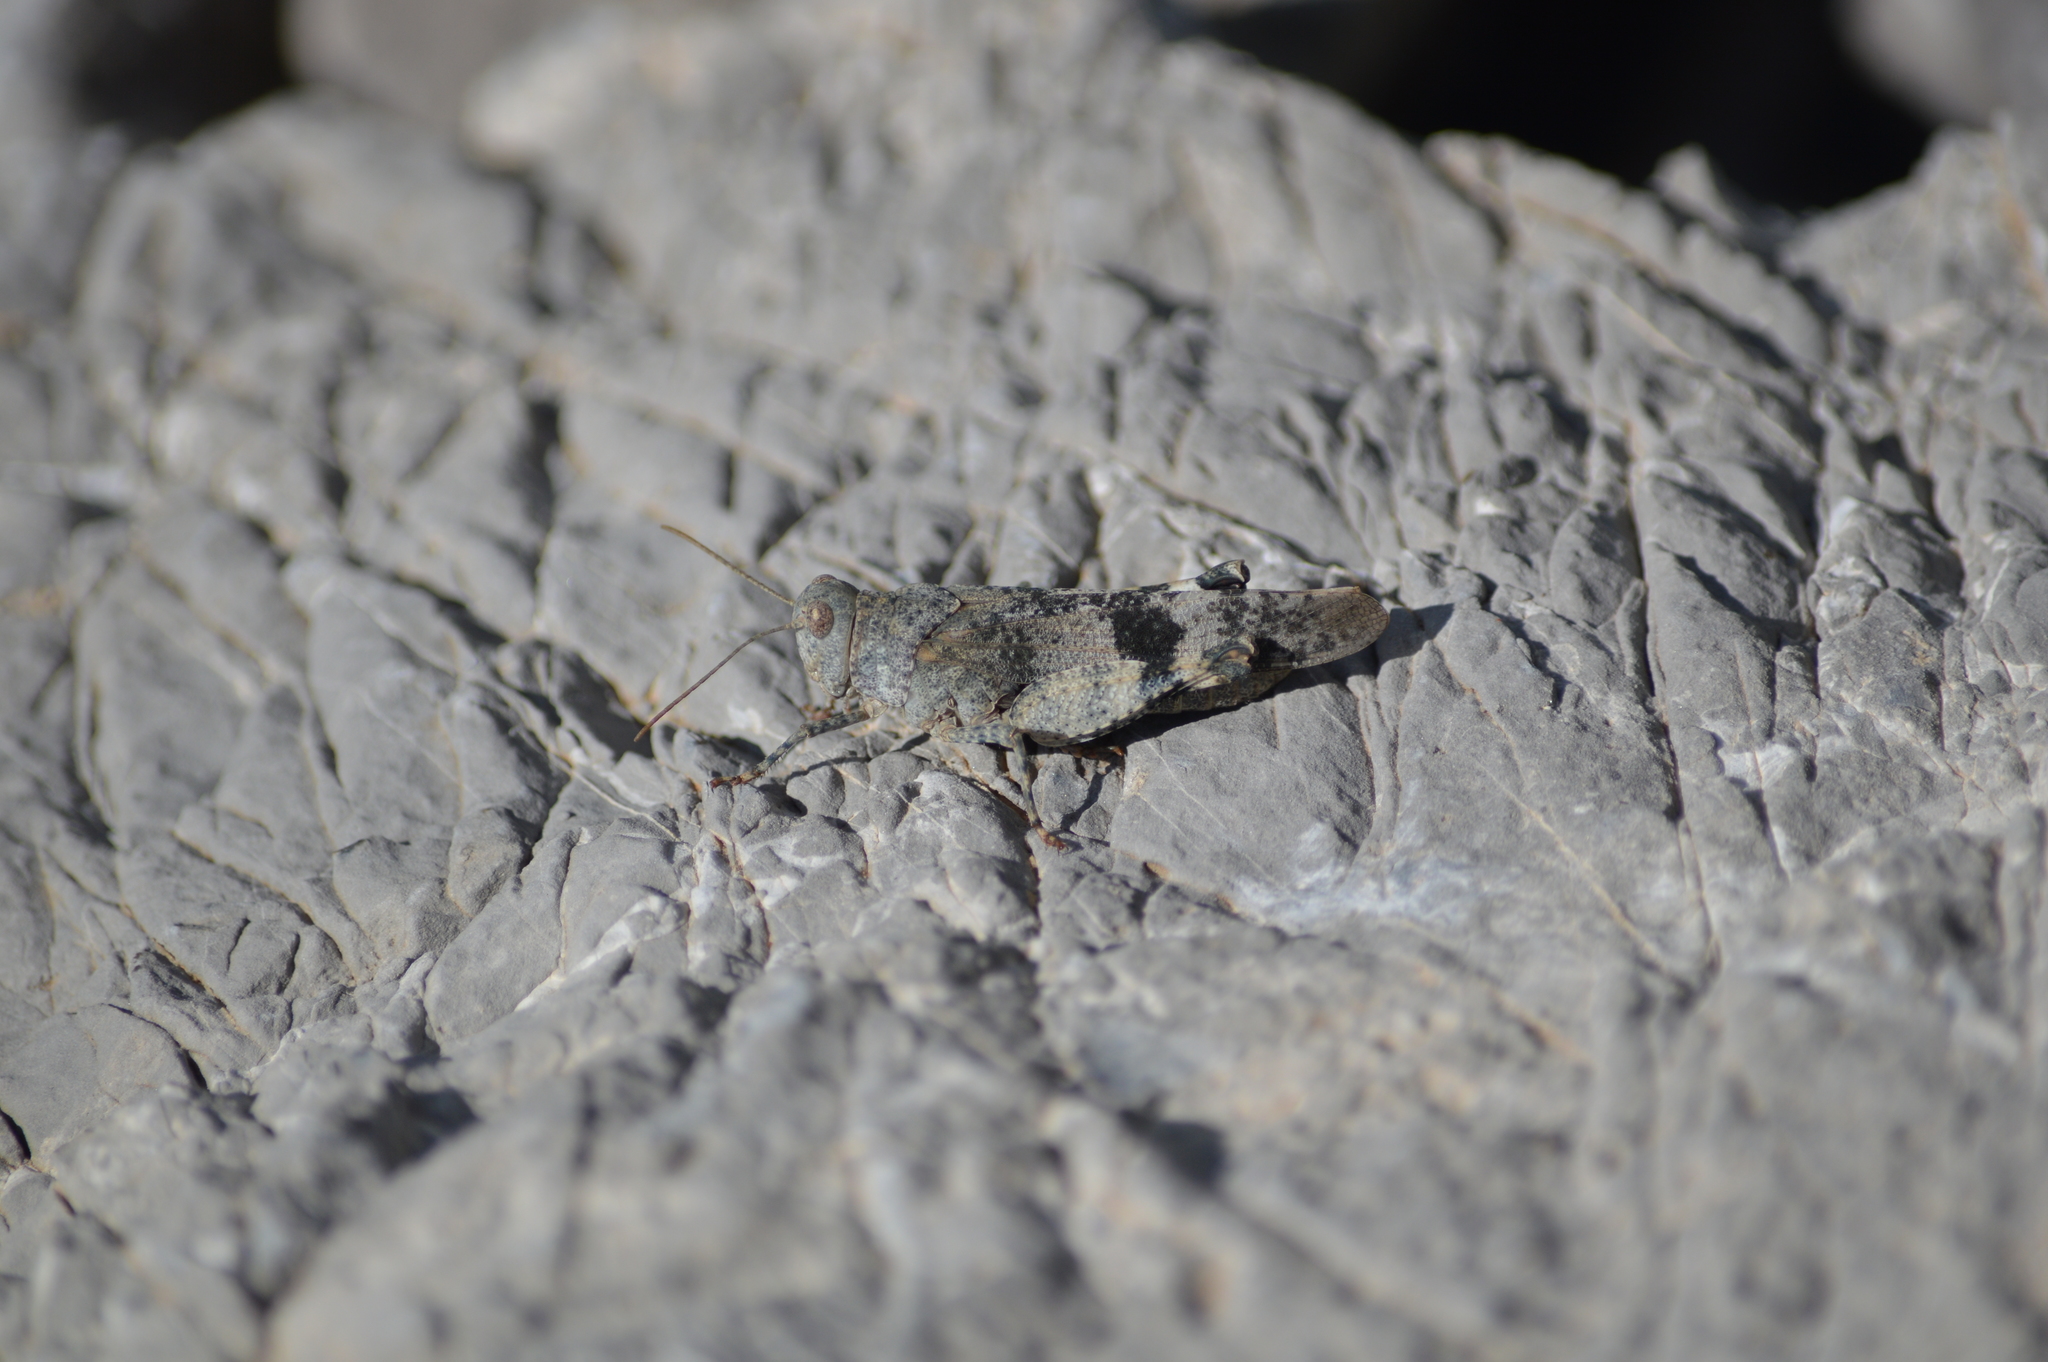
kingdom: Animalia
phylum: Arthropoda
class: Insecta
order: Orthoptera
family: Acrididae
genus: Oedipoda
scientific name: Oedipoda germanica
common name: Red band-winged grasshopper
